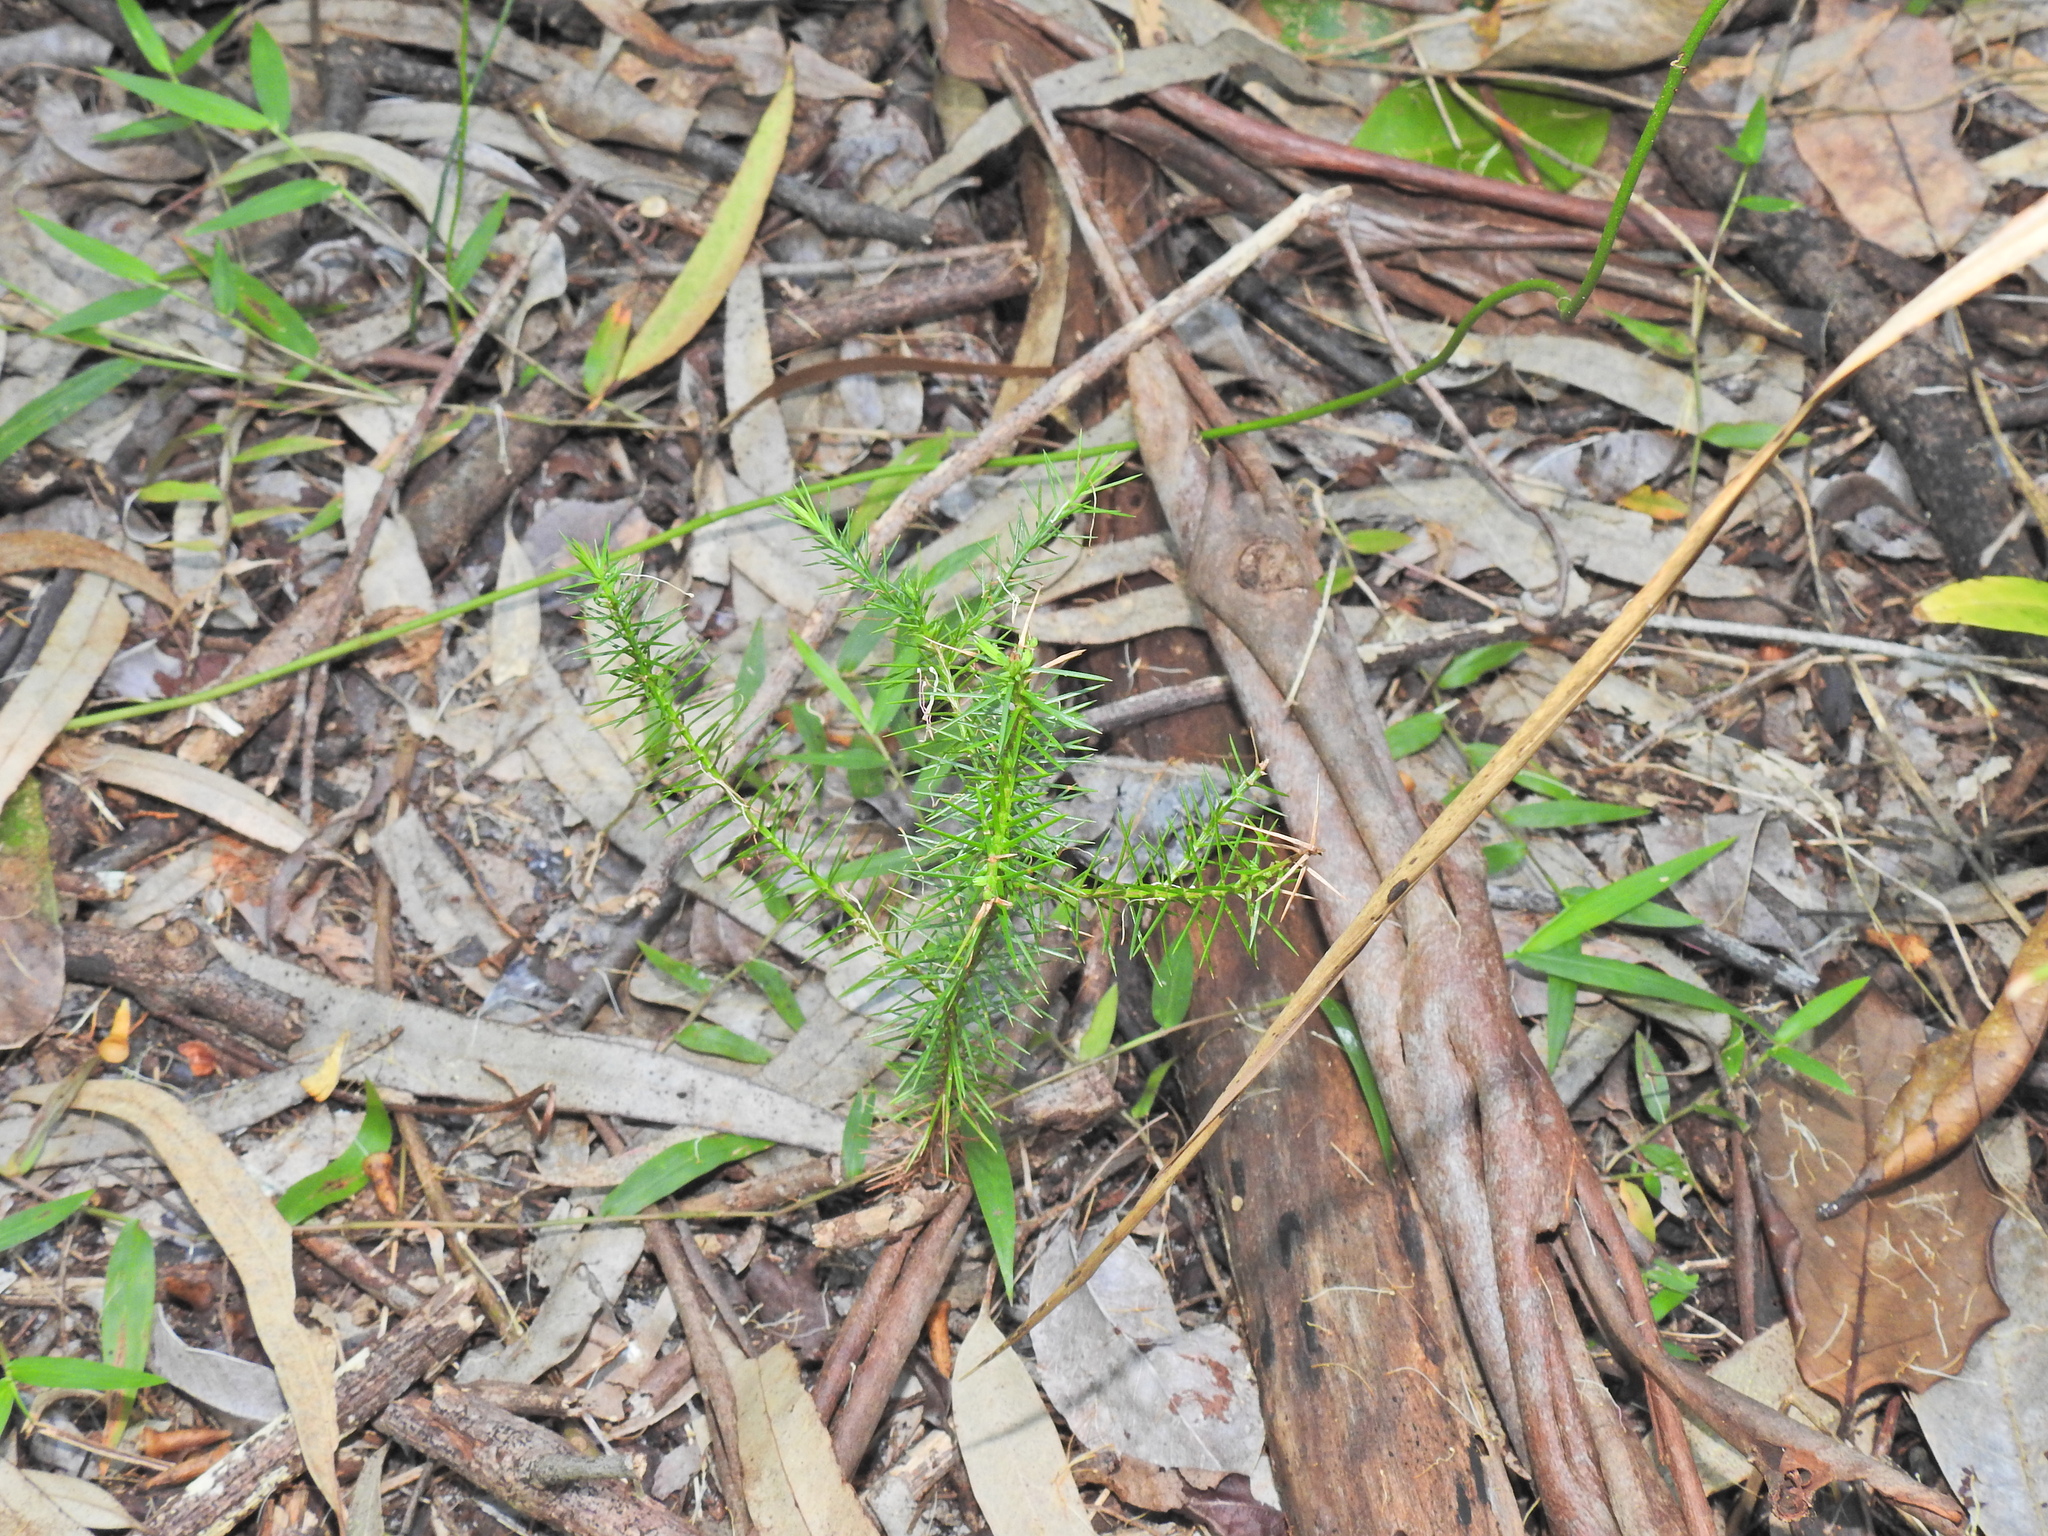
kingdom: Plantae
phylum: Tracheophyta
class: Pinopsida
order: Pinales
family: Cupressaceae
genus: Callitris
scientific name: Callitris columellaris
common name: White cypress-pine
